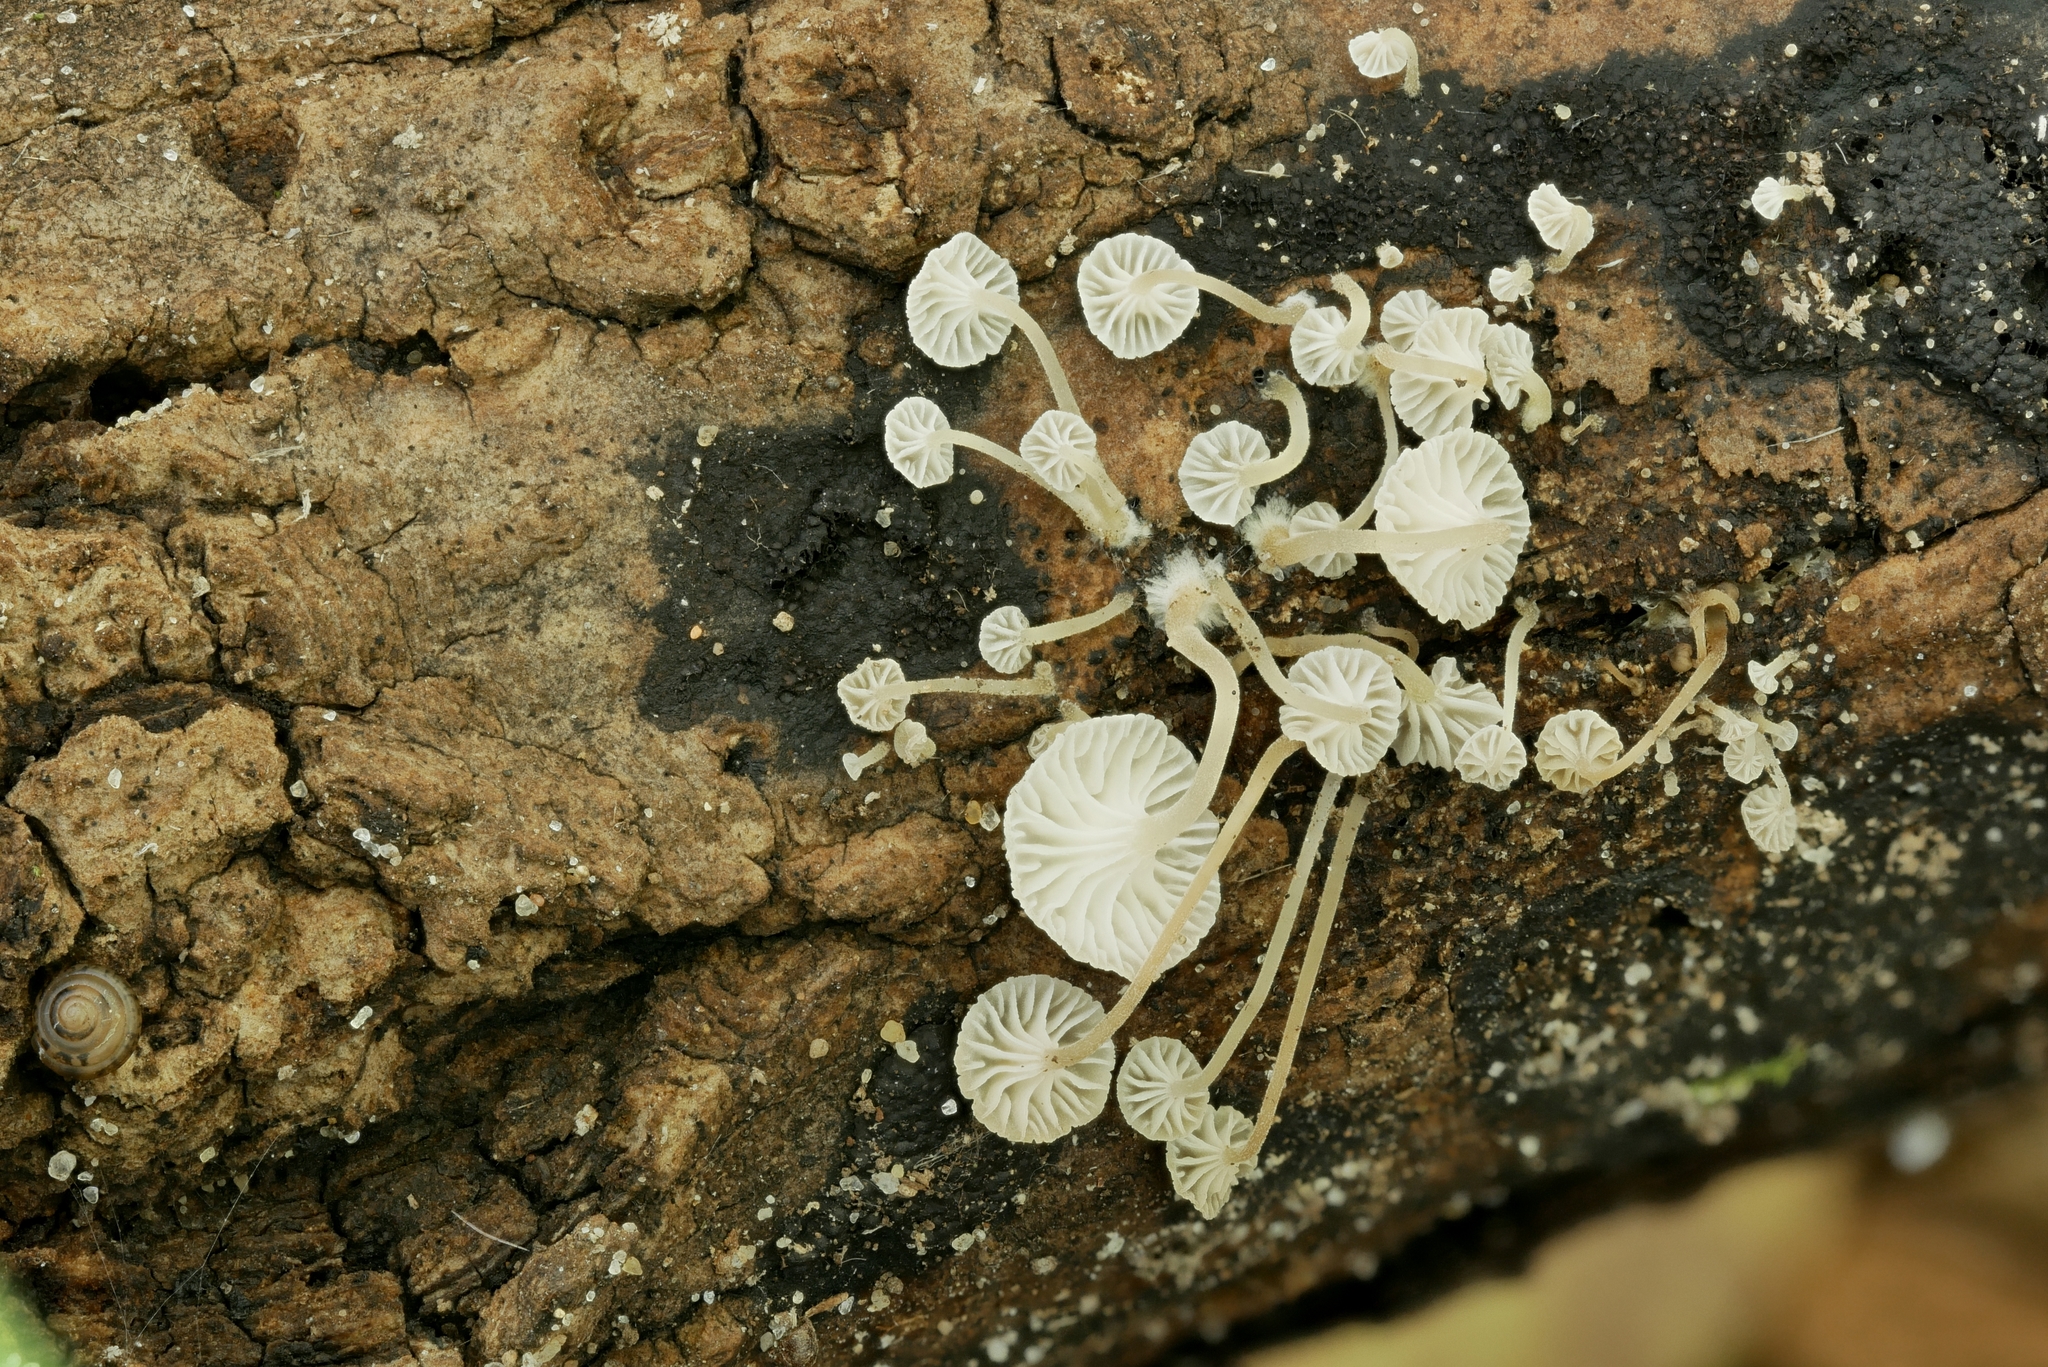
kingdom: Fungi
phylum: Basidiomycota
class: Agaricomycetes
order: Agaricales
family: Porotheleaceae
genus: Phloeomana
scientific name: Phloeomana speirea
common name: Bark bonnet
